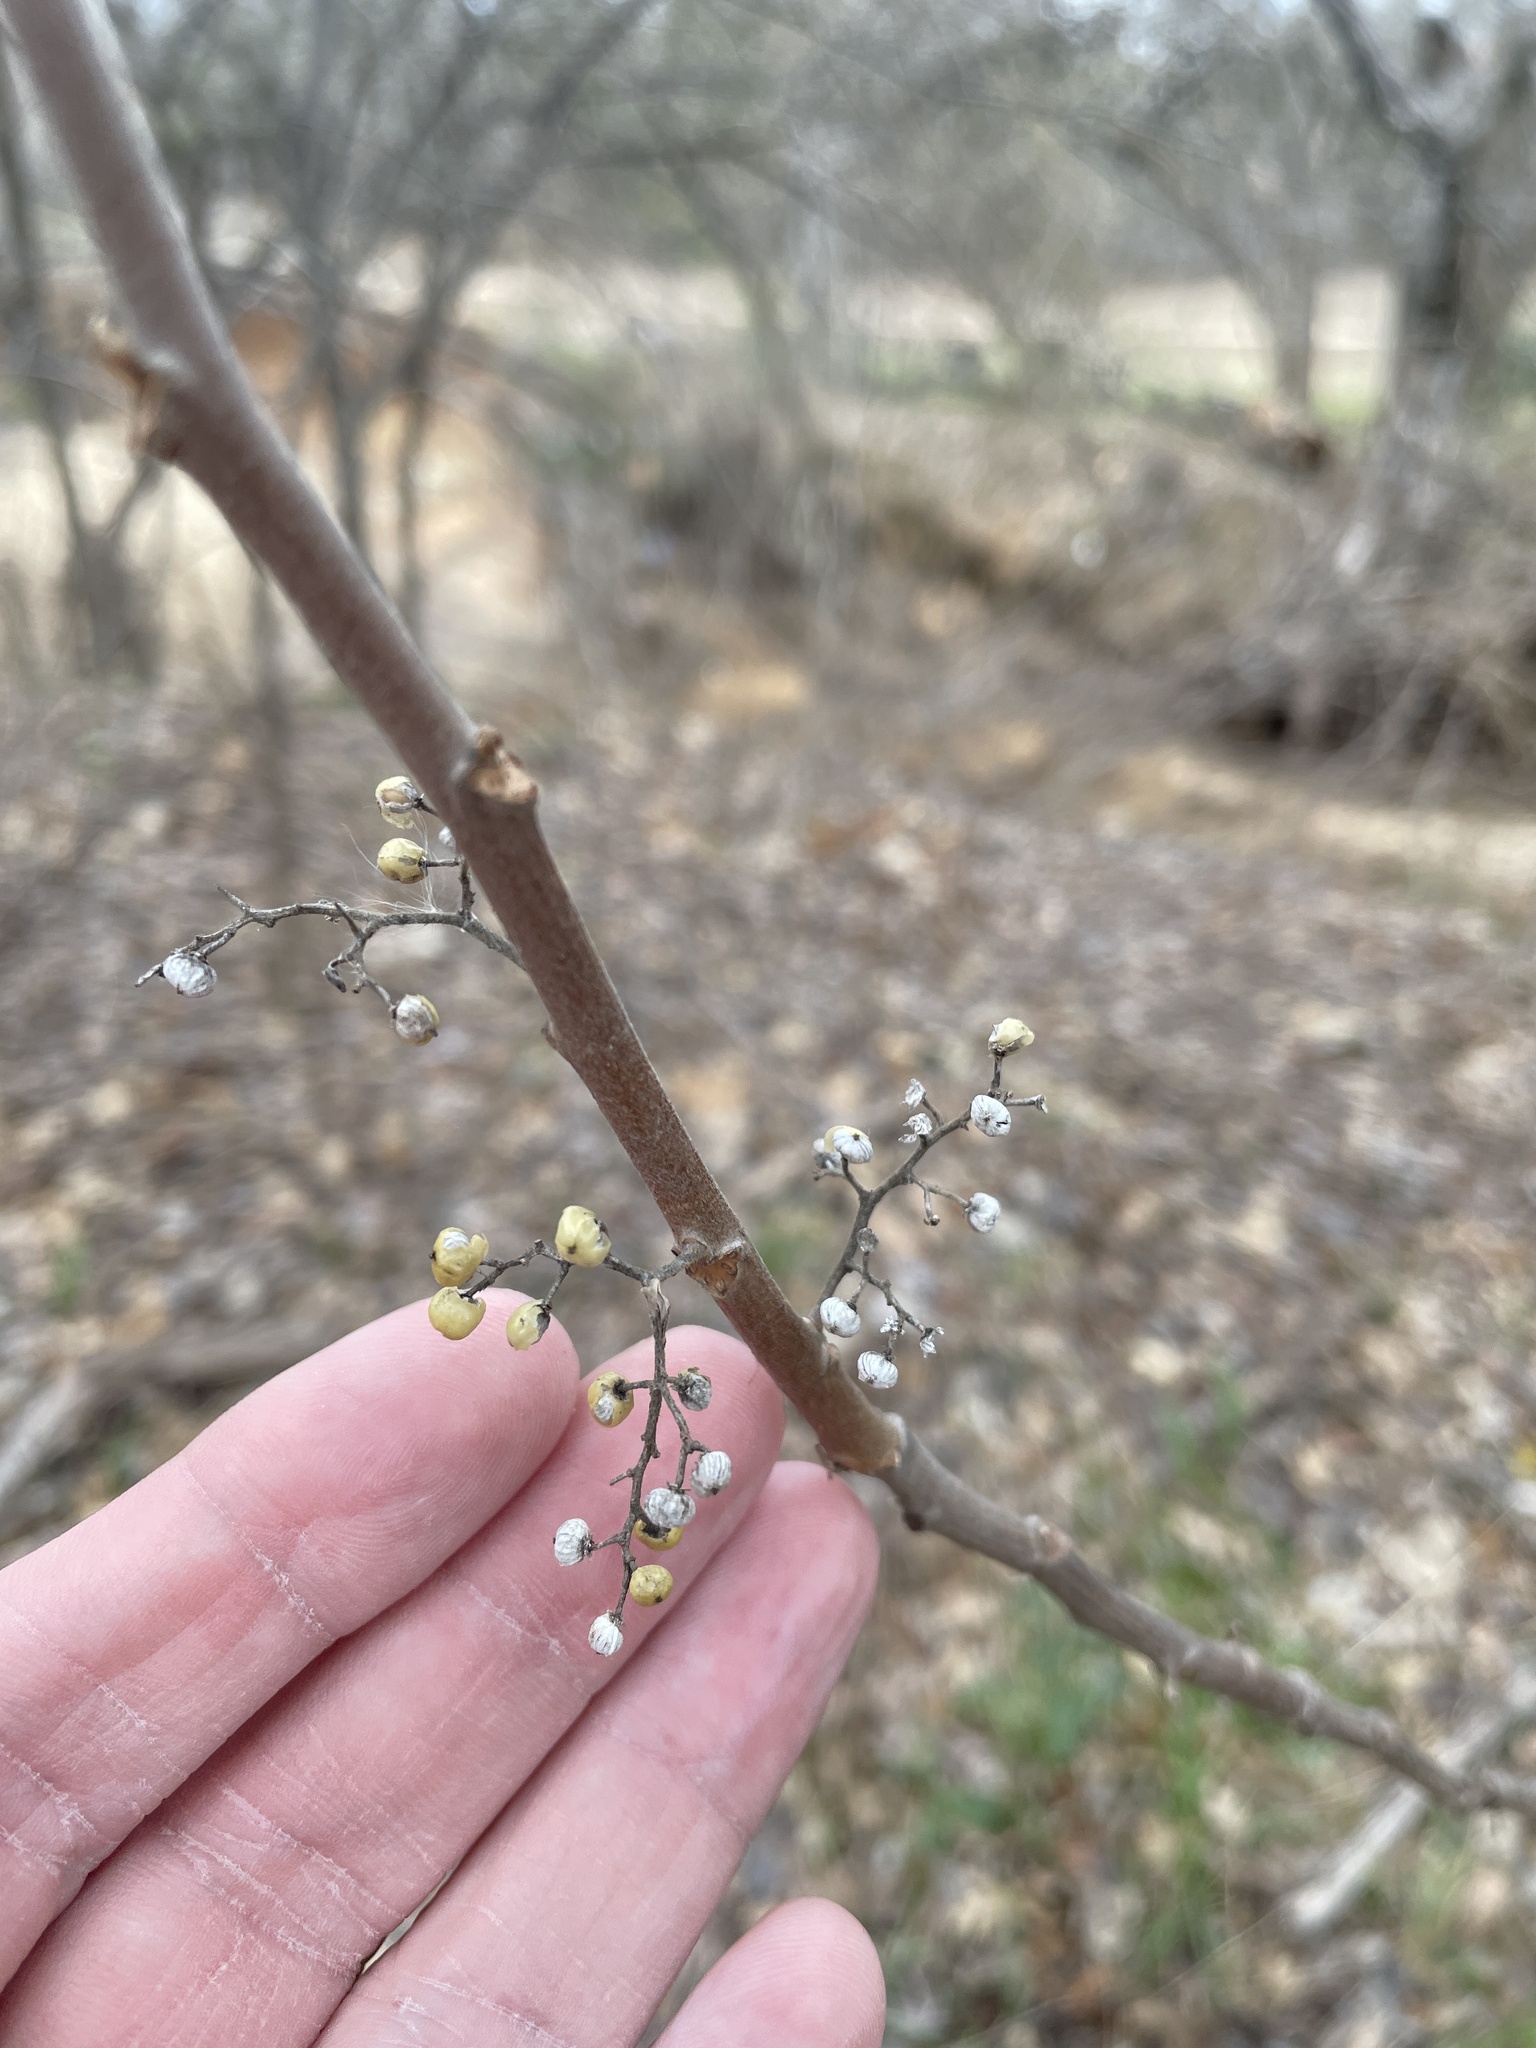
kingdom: Plantae
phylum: Tracheophyta
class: Magnoliopsida
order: Sapindales
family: Anacardiaceae
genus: Toxicodendron
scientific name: Toxicodendron radicans
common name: Poison ivy
